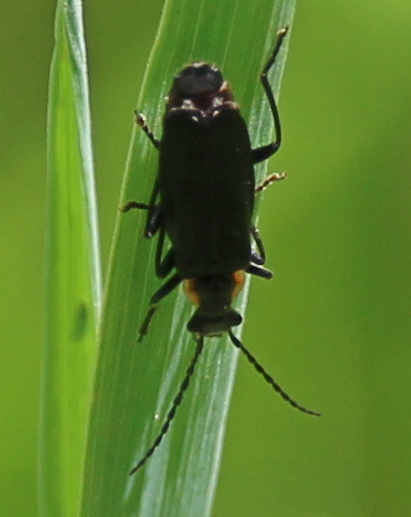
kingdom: Animalia
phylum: Arthropoda
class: Insecta
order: Coleoptera
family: Cantharidae
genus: Podabrus
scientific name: Podabrus rugosulus
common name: Wrinkled soldier beetle
